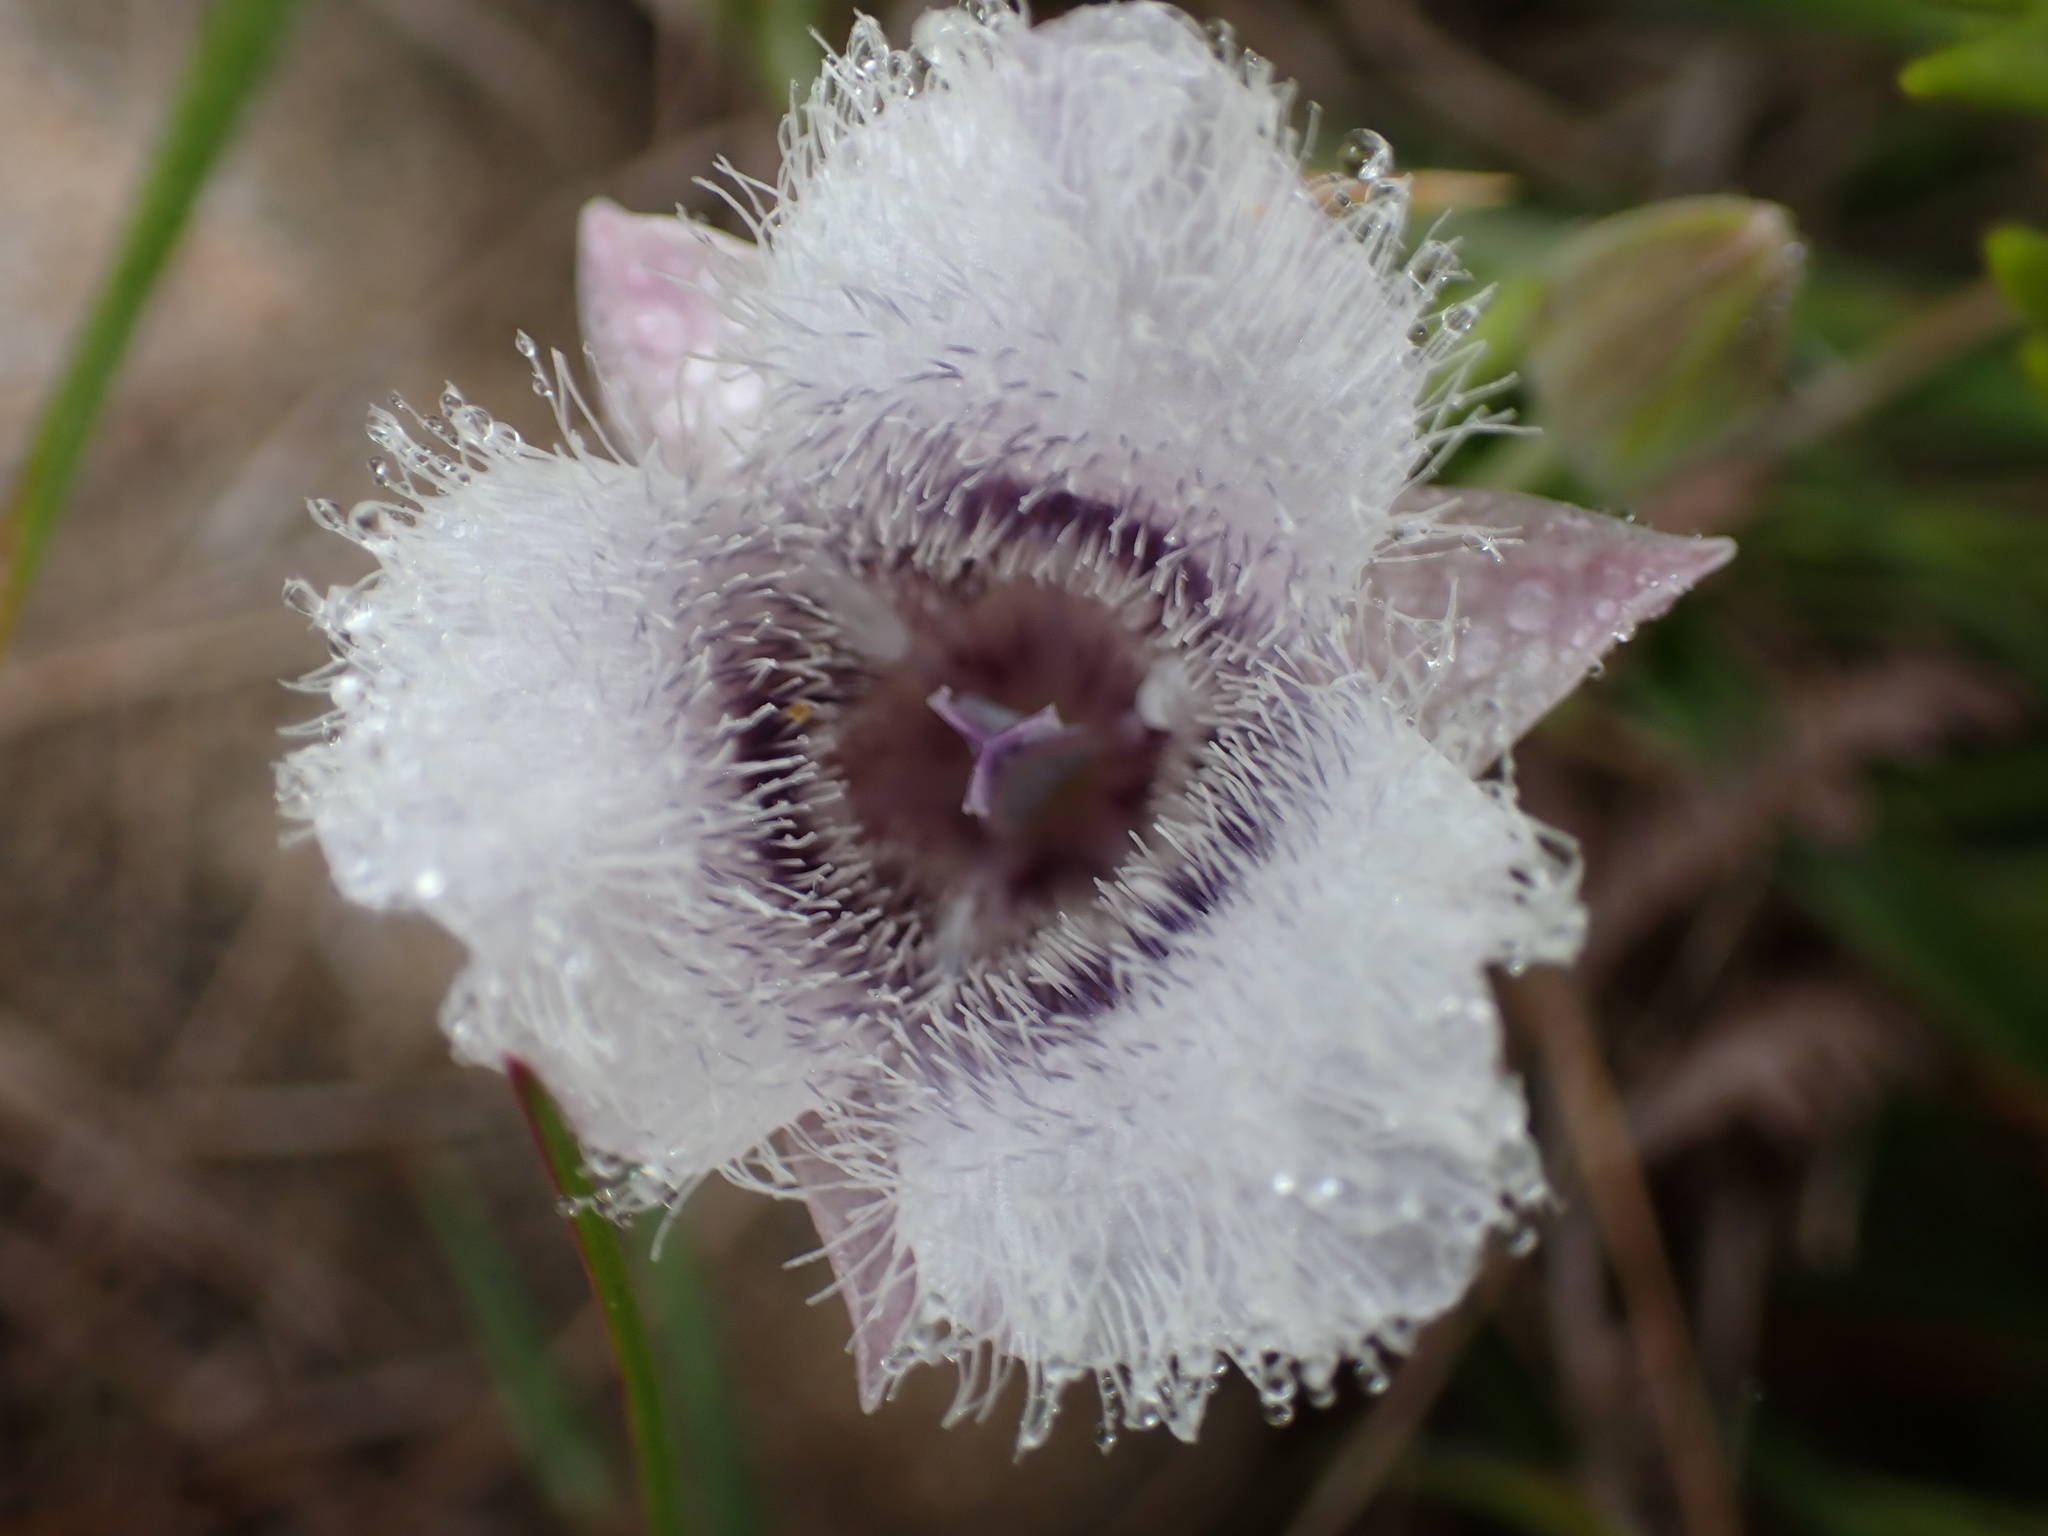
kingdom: Plantae
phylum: Tracheophyta
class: Liliopsida
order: Liliales
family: Liliaceae
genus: Calochortus
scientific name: Calochortus tolmiei
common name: Pussy-ears
